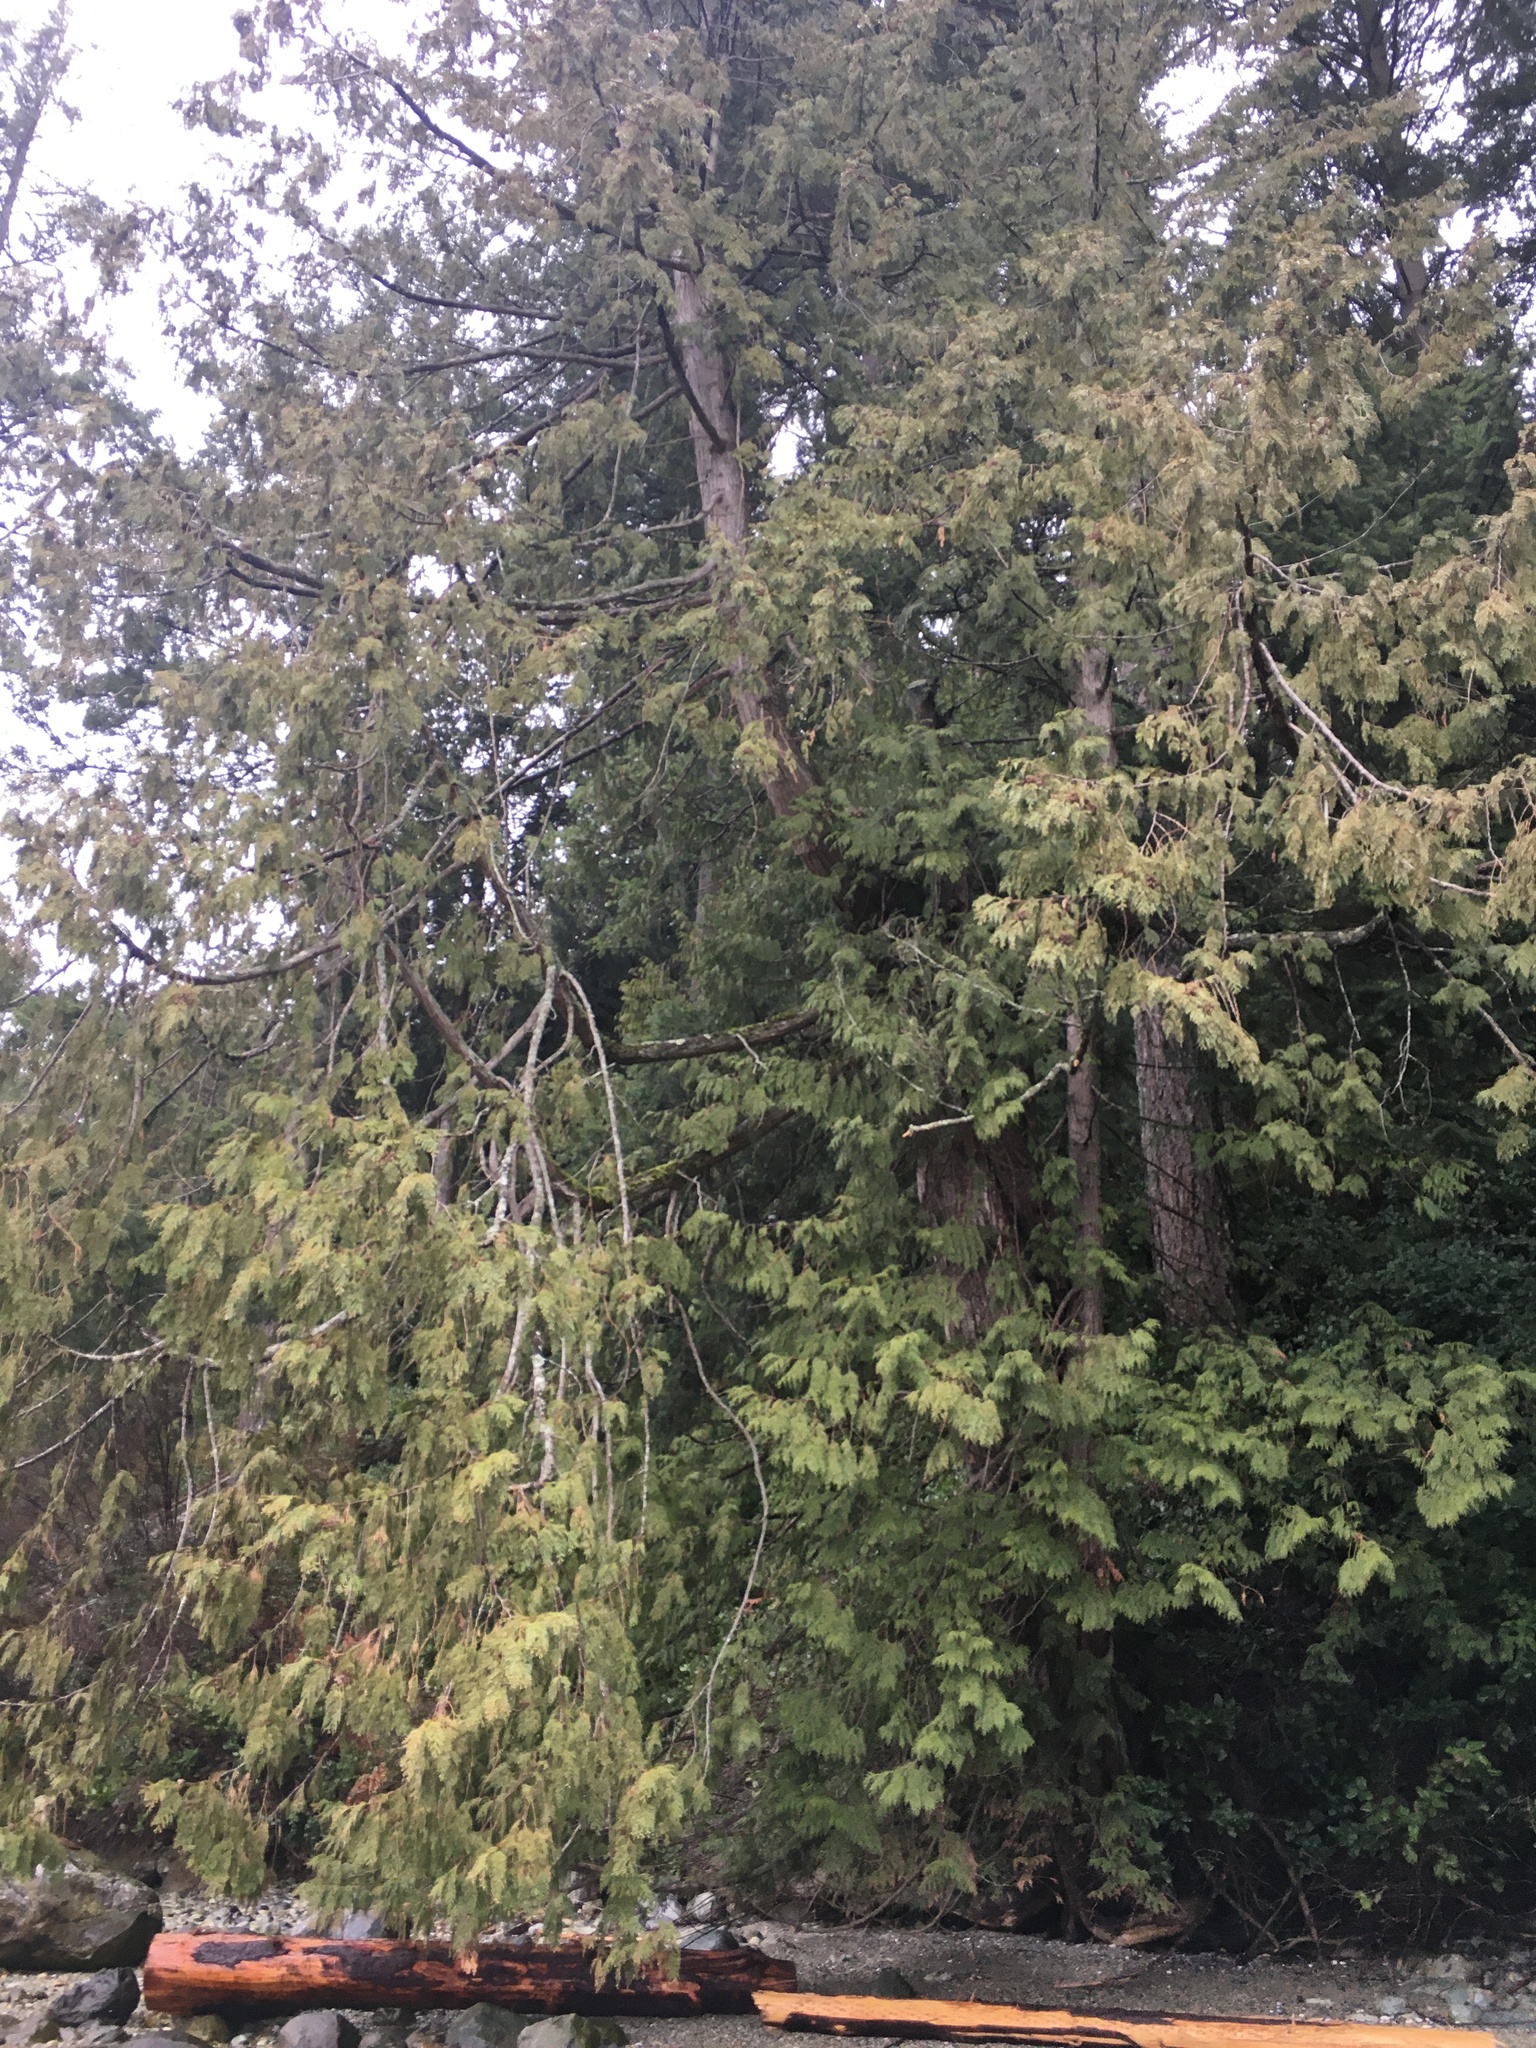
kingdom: Plantae
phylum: Tracheophyta
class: Pinopsida
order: Pinales
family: Cupressaceae
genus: Thuja
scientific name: Thuja plicata
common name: Western red-cedar
